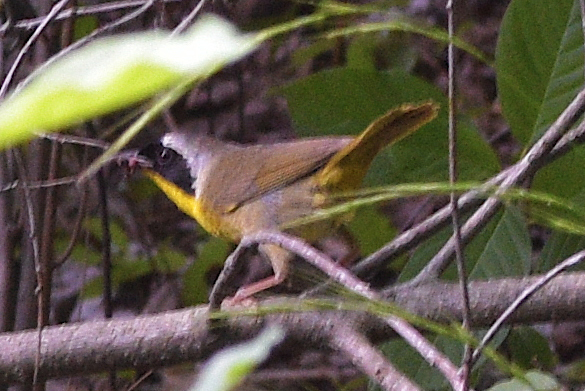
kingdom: Animalia
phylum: Chordata
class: Aves
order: Passeriformes
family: Parulidae
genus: Geothlypis
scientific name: Geothlypis trichas
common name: Common yellowthroat
